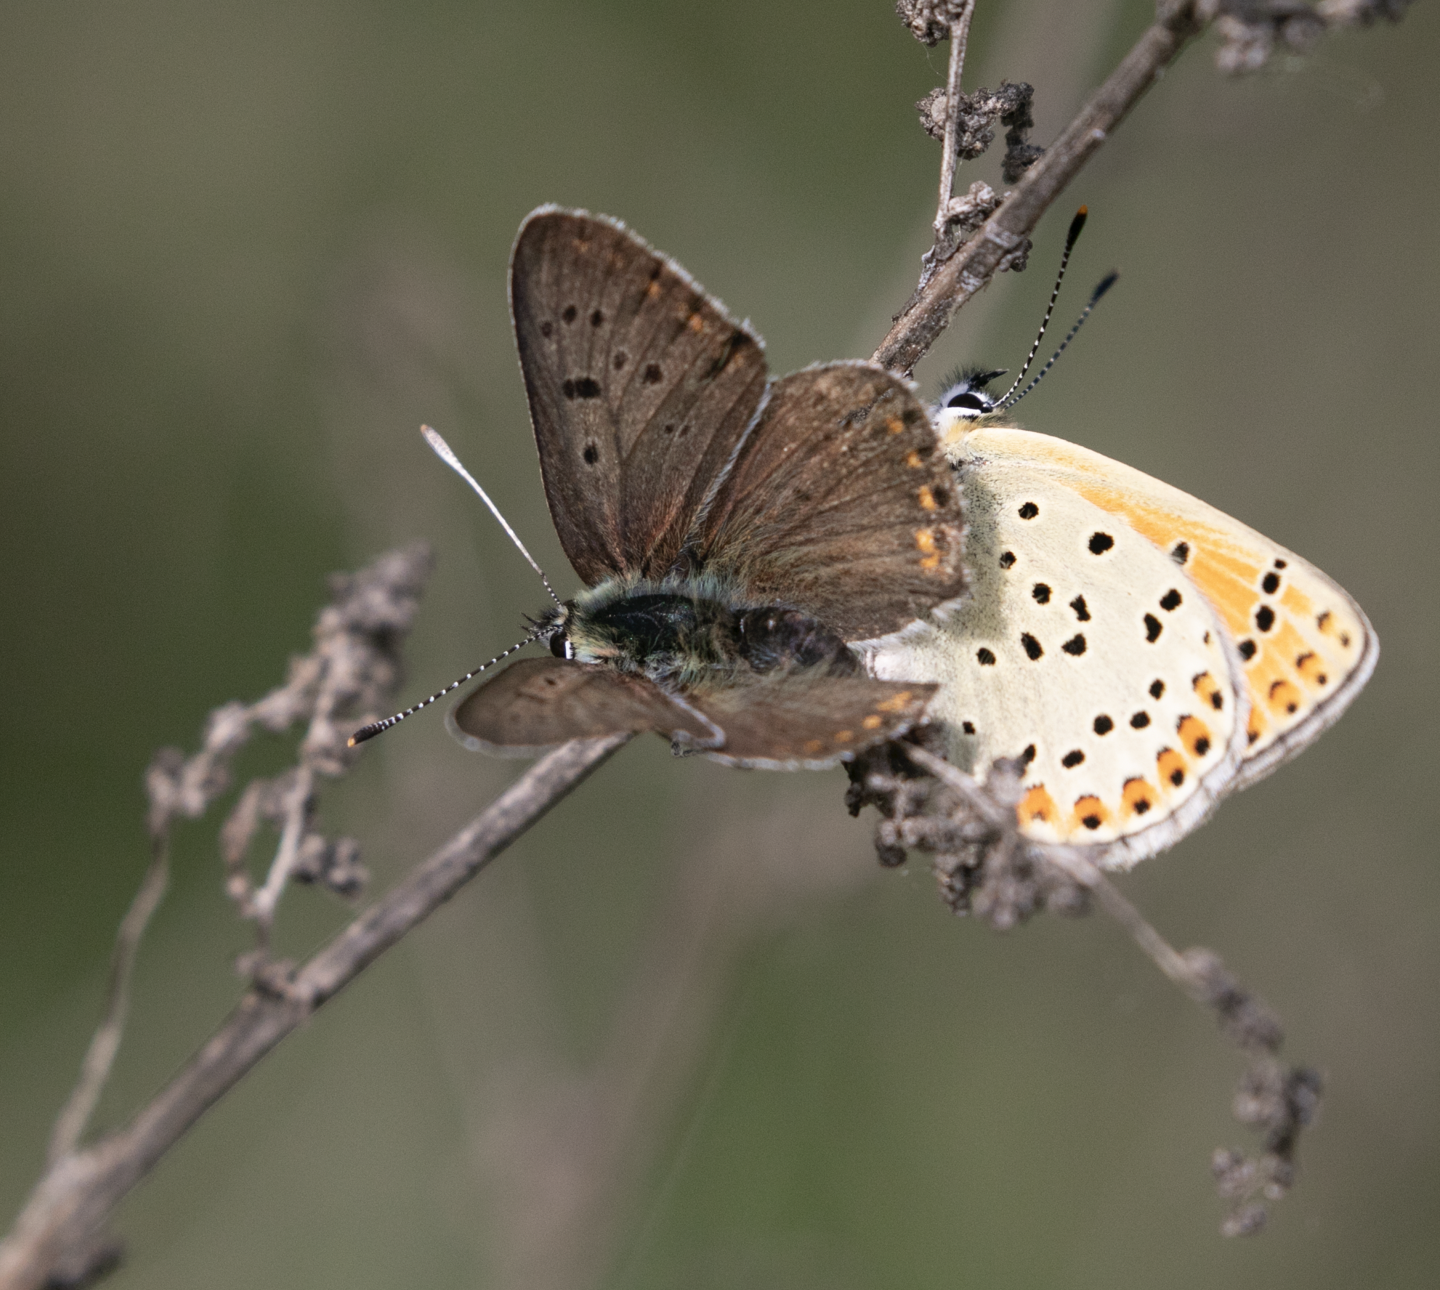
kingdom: Animalia
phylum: Arthropoda
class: Insecta
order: Lepidoptera
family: Lycaenidae
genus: Loweia
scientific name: Loweia tityrus
